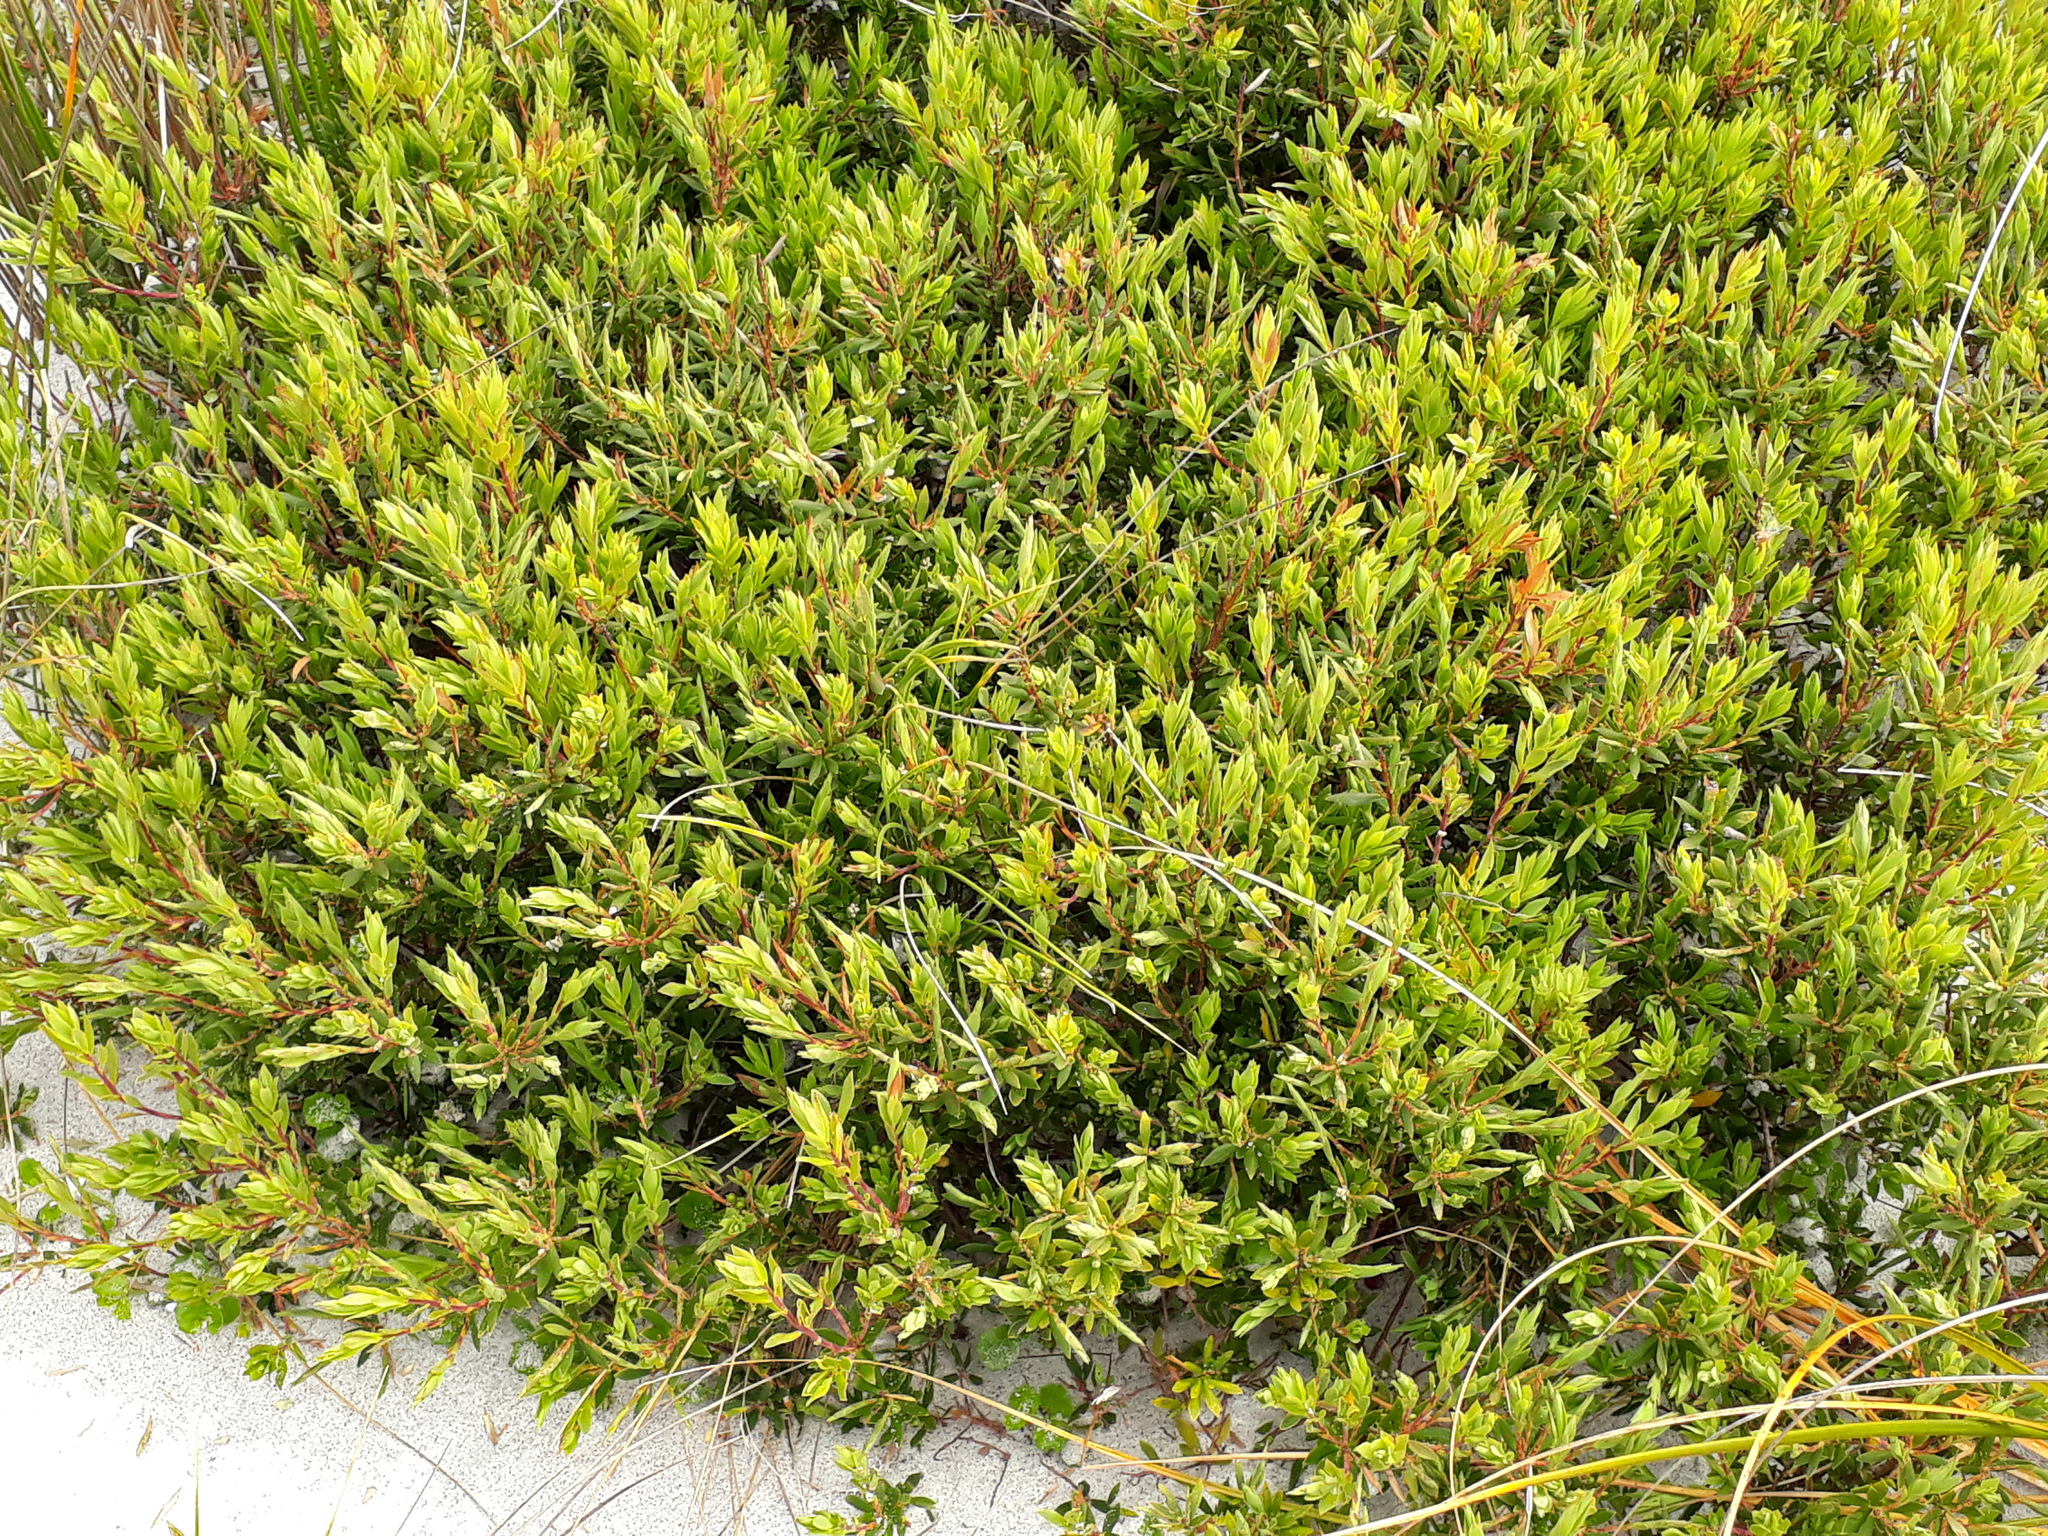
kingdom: Plantae
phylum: Tracheophyta
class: Magnoliopsida
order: Ericales
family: Ericaceae
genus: Leptecophylla
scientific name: Leptecophylla parvifolia
